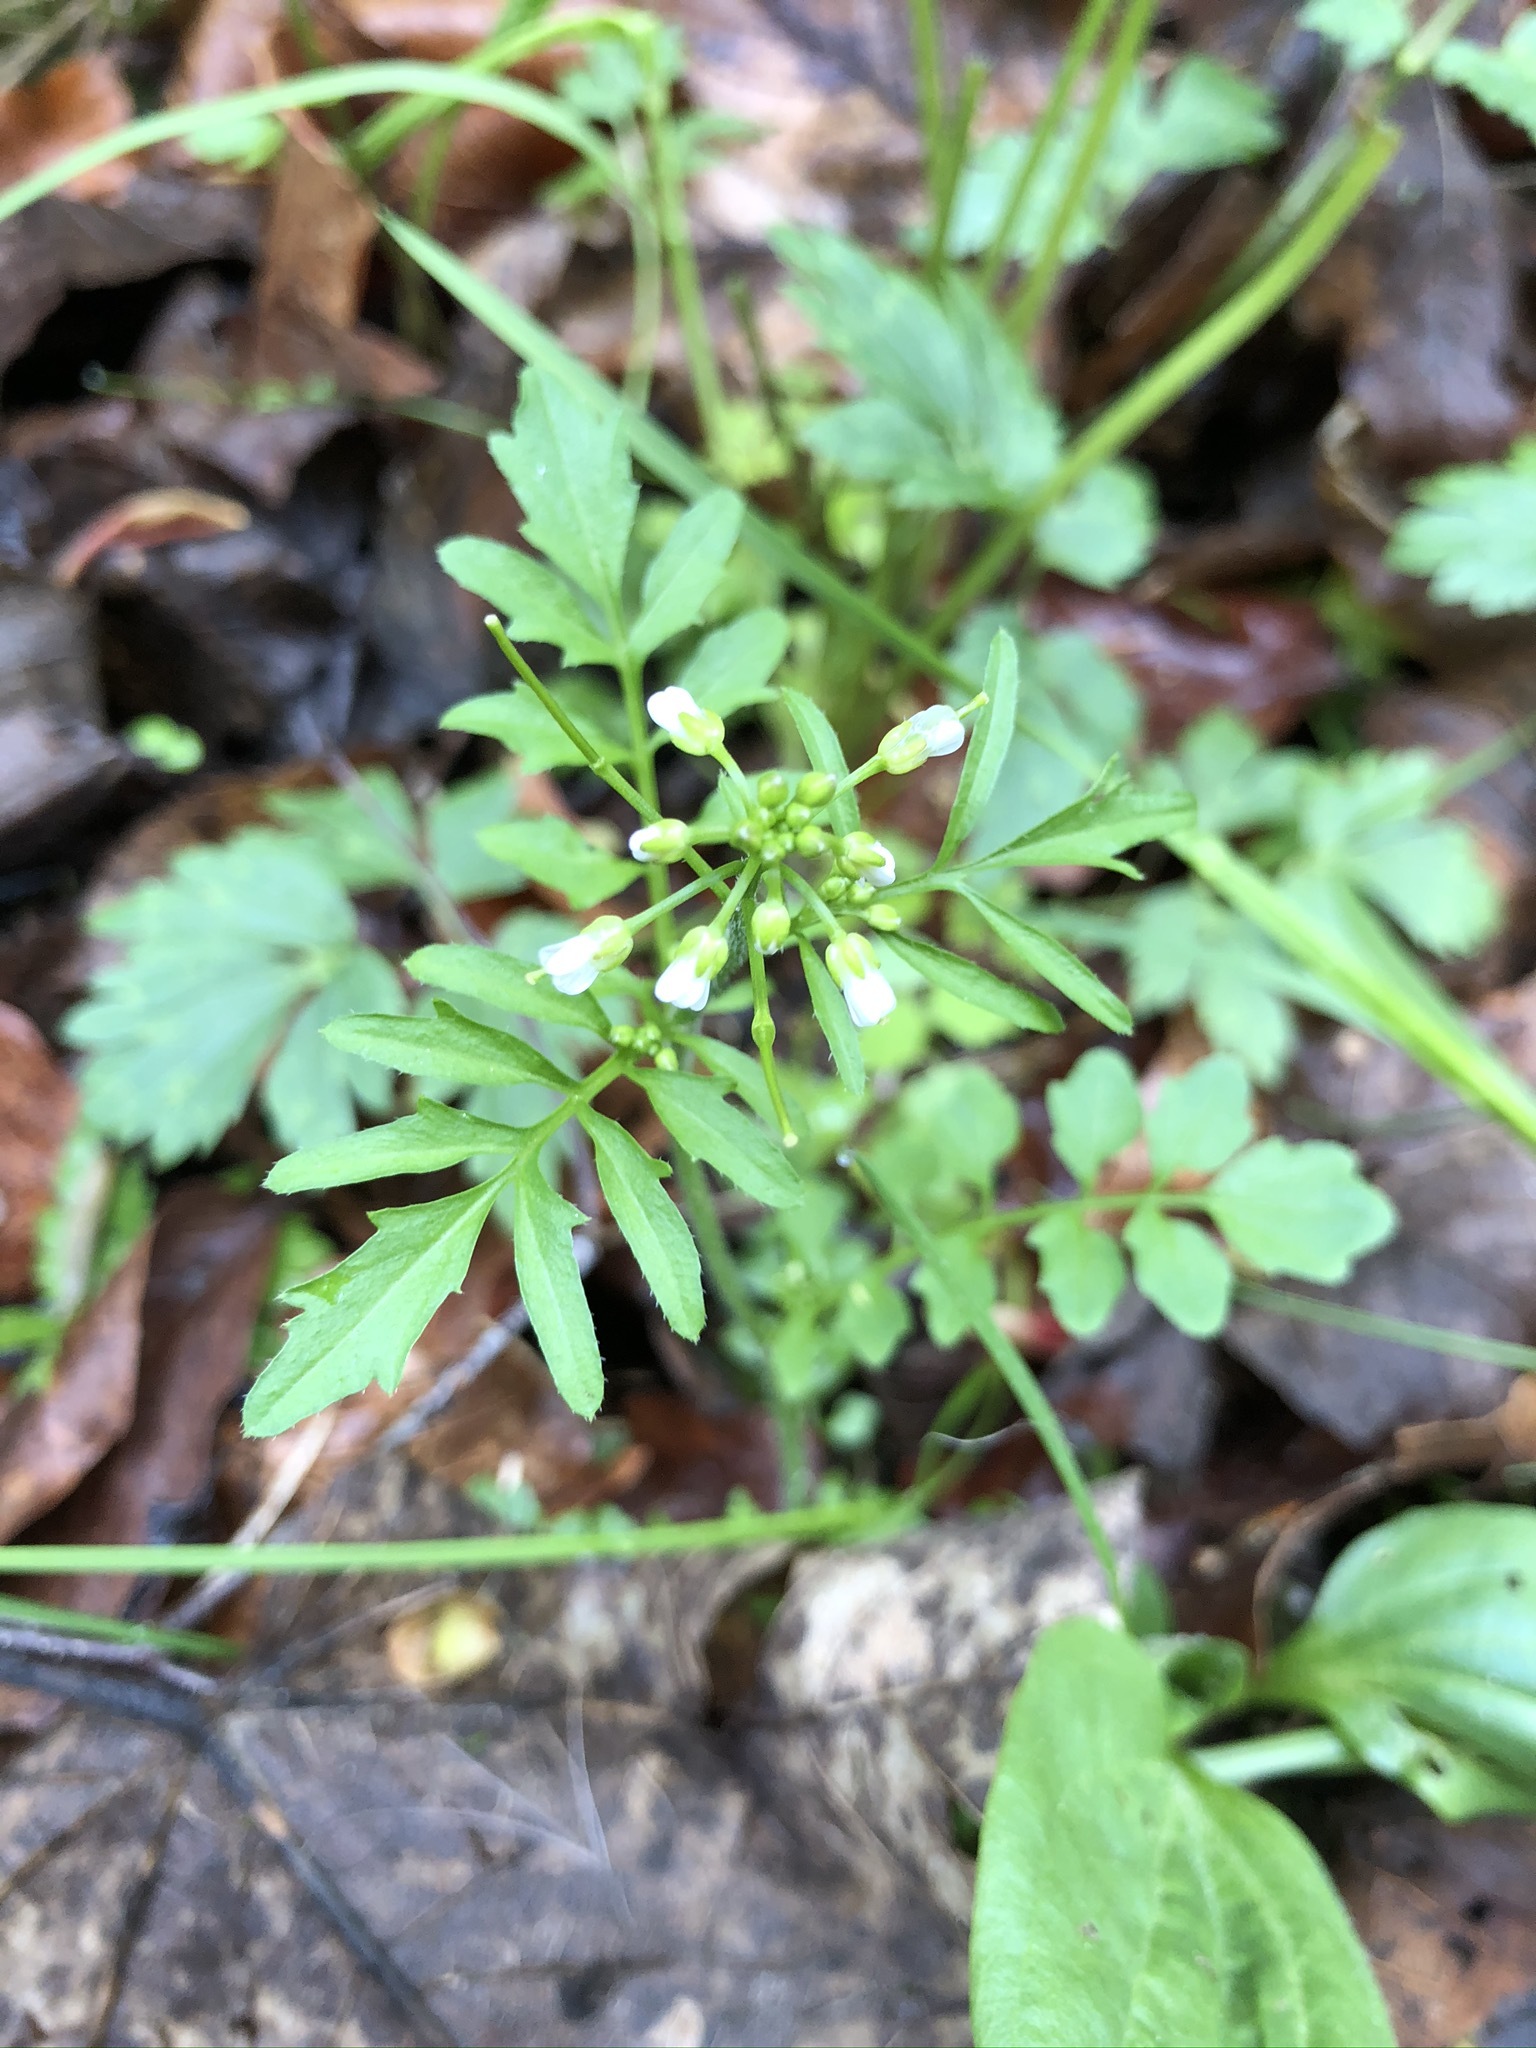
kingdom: Plantae
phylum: Tracheophyta
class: Magnoliopsida
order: Brassicales
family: Brassicaceae
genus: Cardamine
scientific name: Cardamine flexuosa
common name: Woodland bittercress
